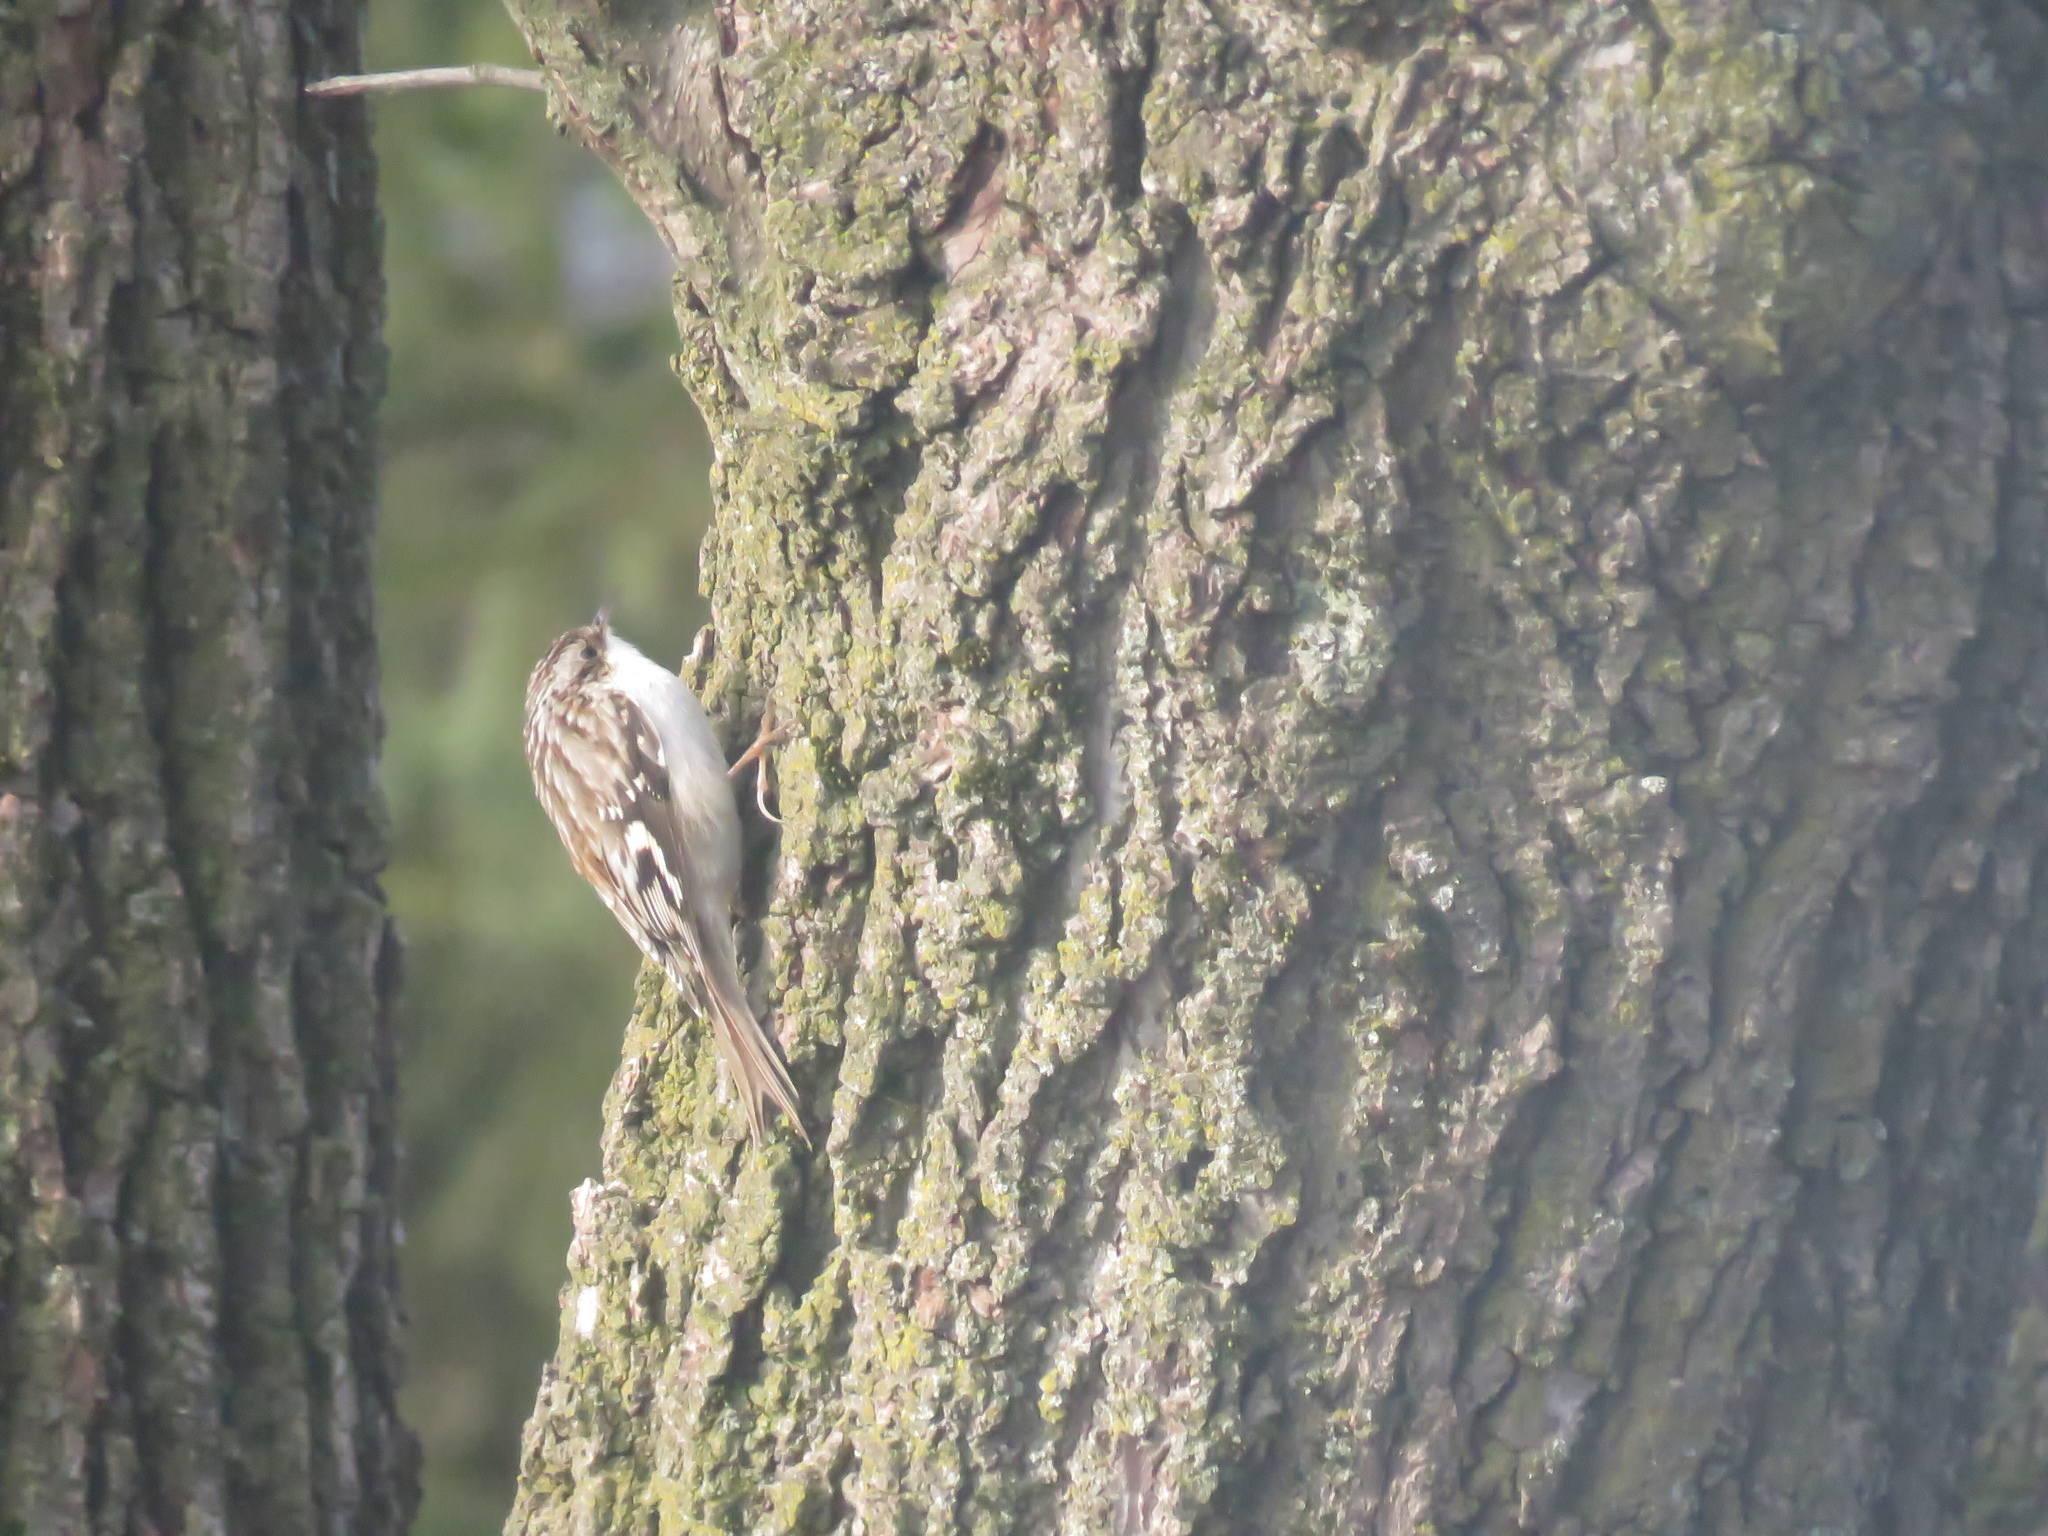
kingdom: Animalia
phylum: Chordata
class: Aves
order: Passeriformes
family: Certhiidae
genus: Certhia
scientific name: Certhia americana
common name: Brown creeper
